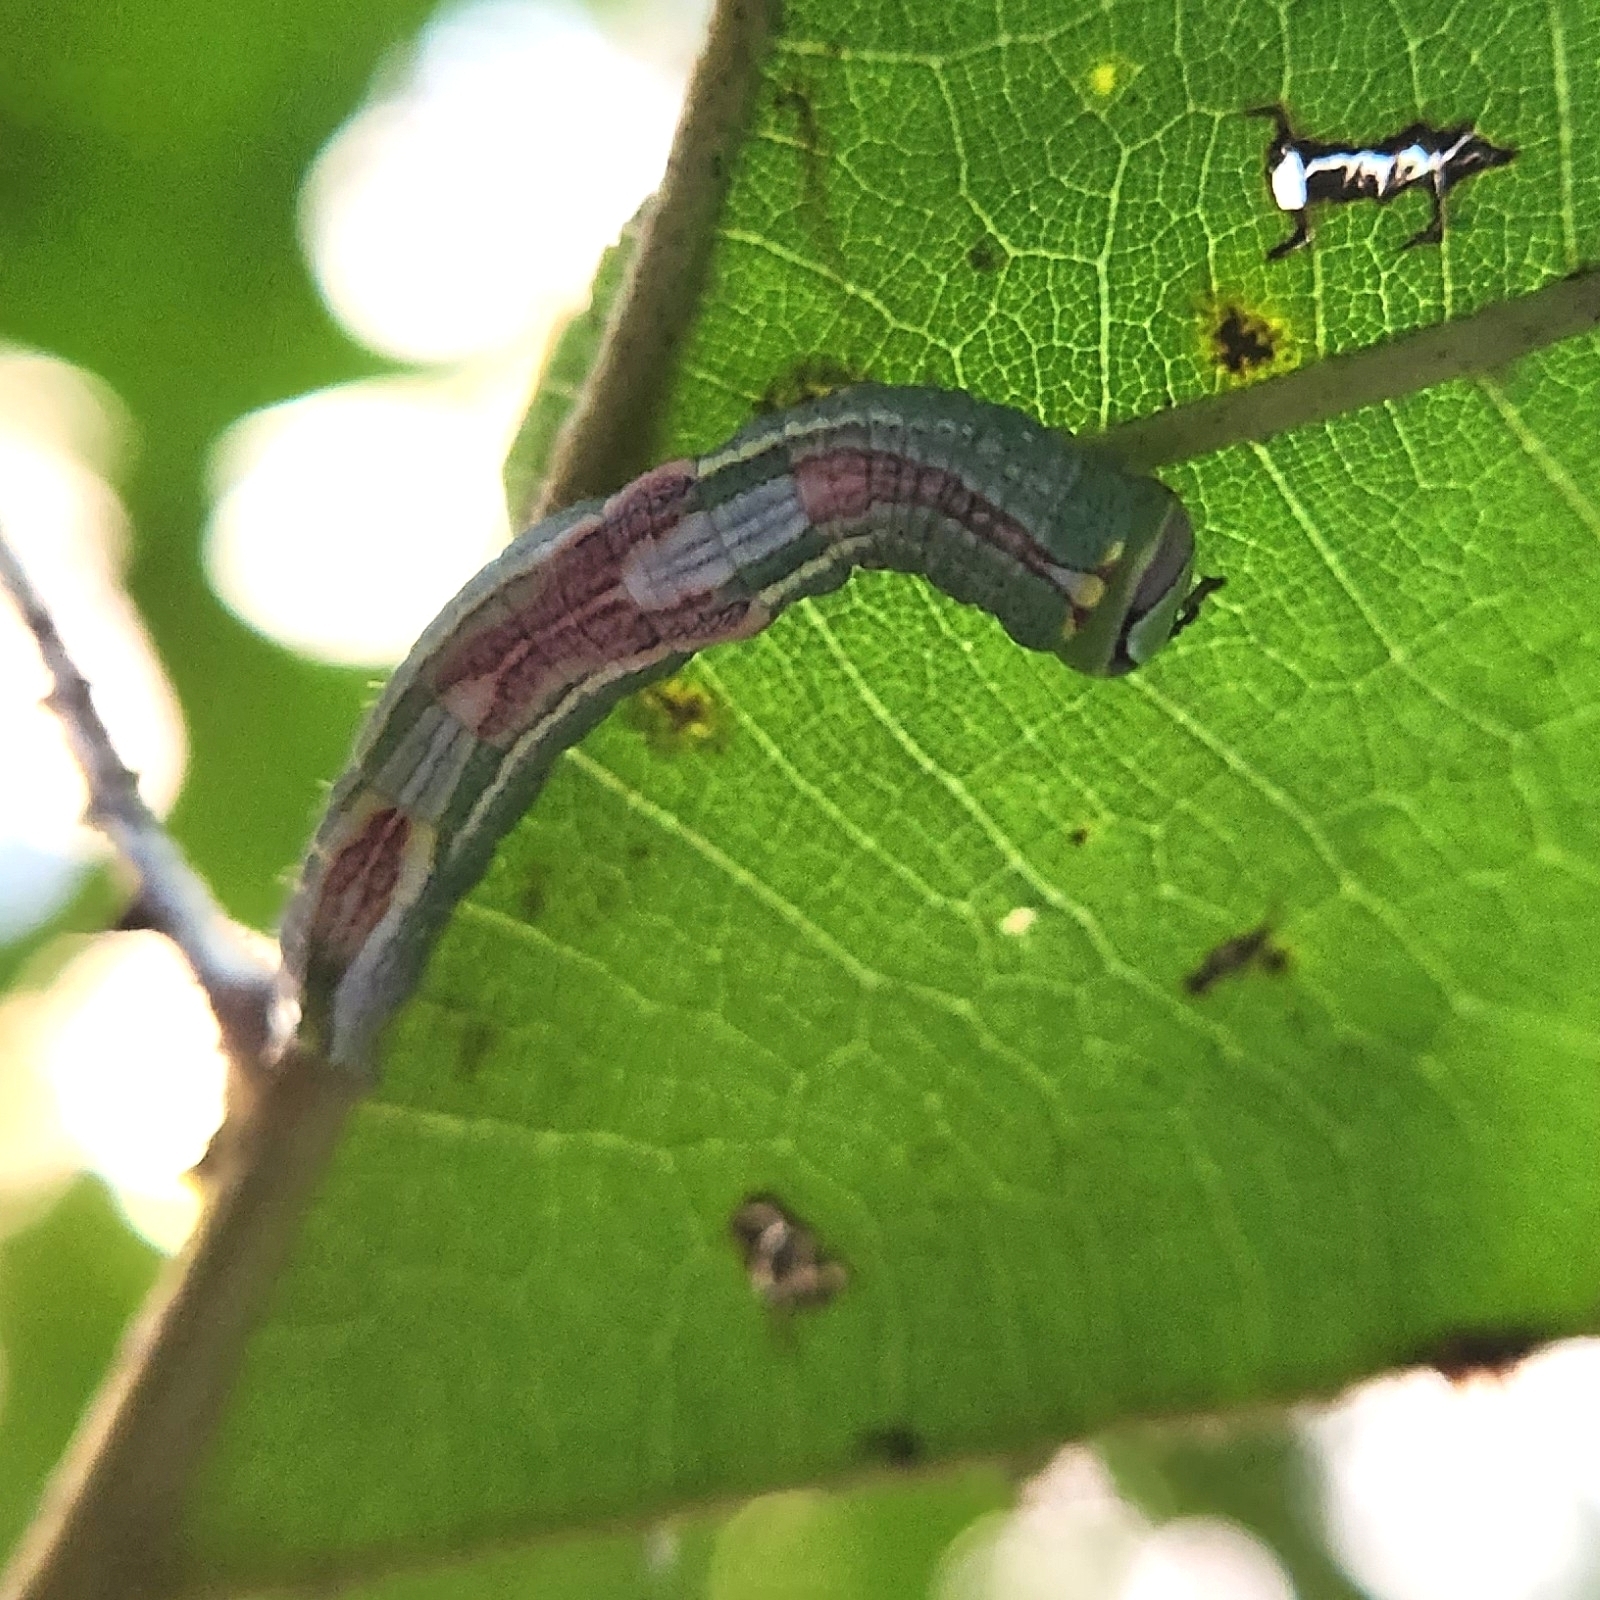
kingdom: Animalia
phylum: Arthropoda
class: Insecta
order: Lepidoptera
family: Notodontidae
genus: Disphragis
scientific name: Disphragis Cecrita guttivitta
